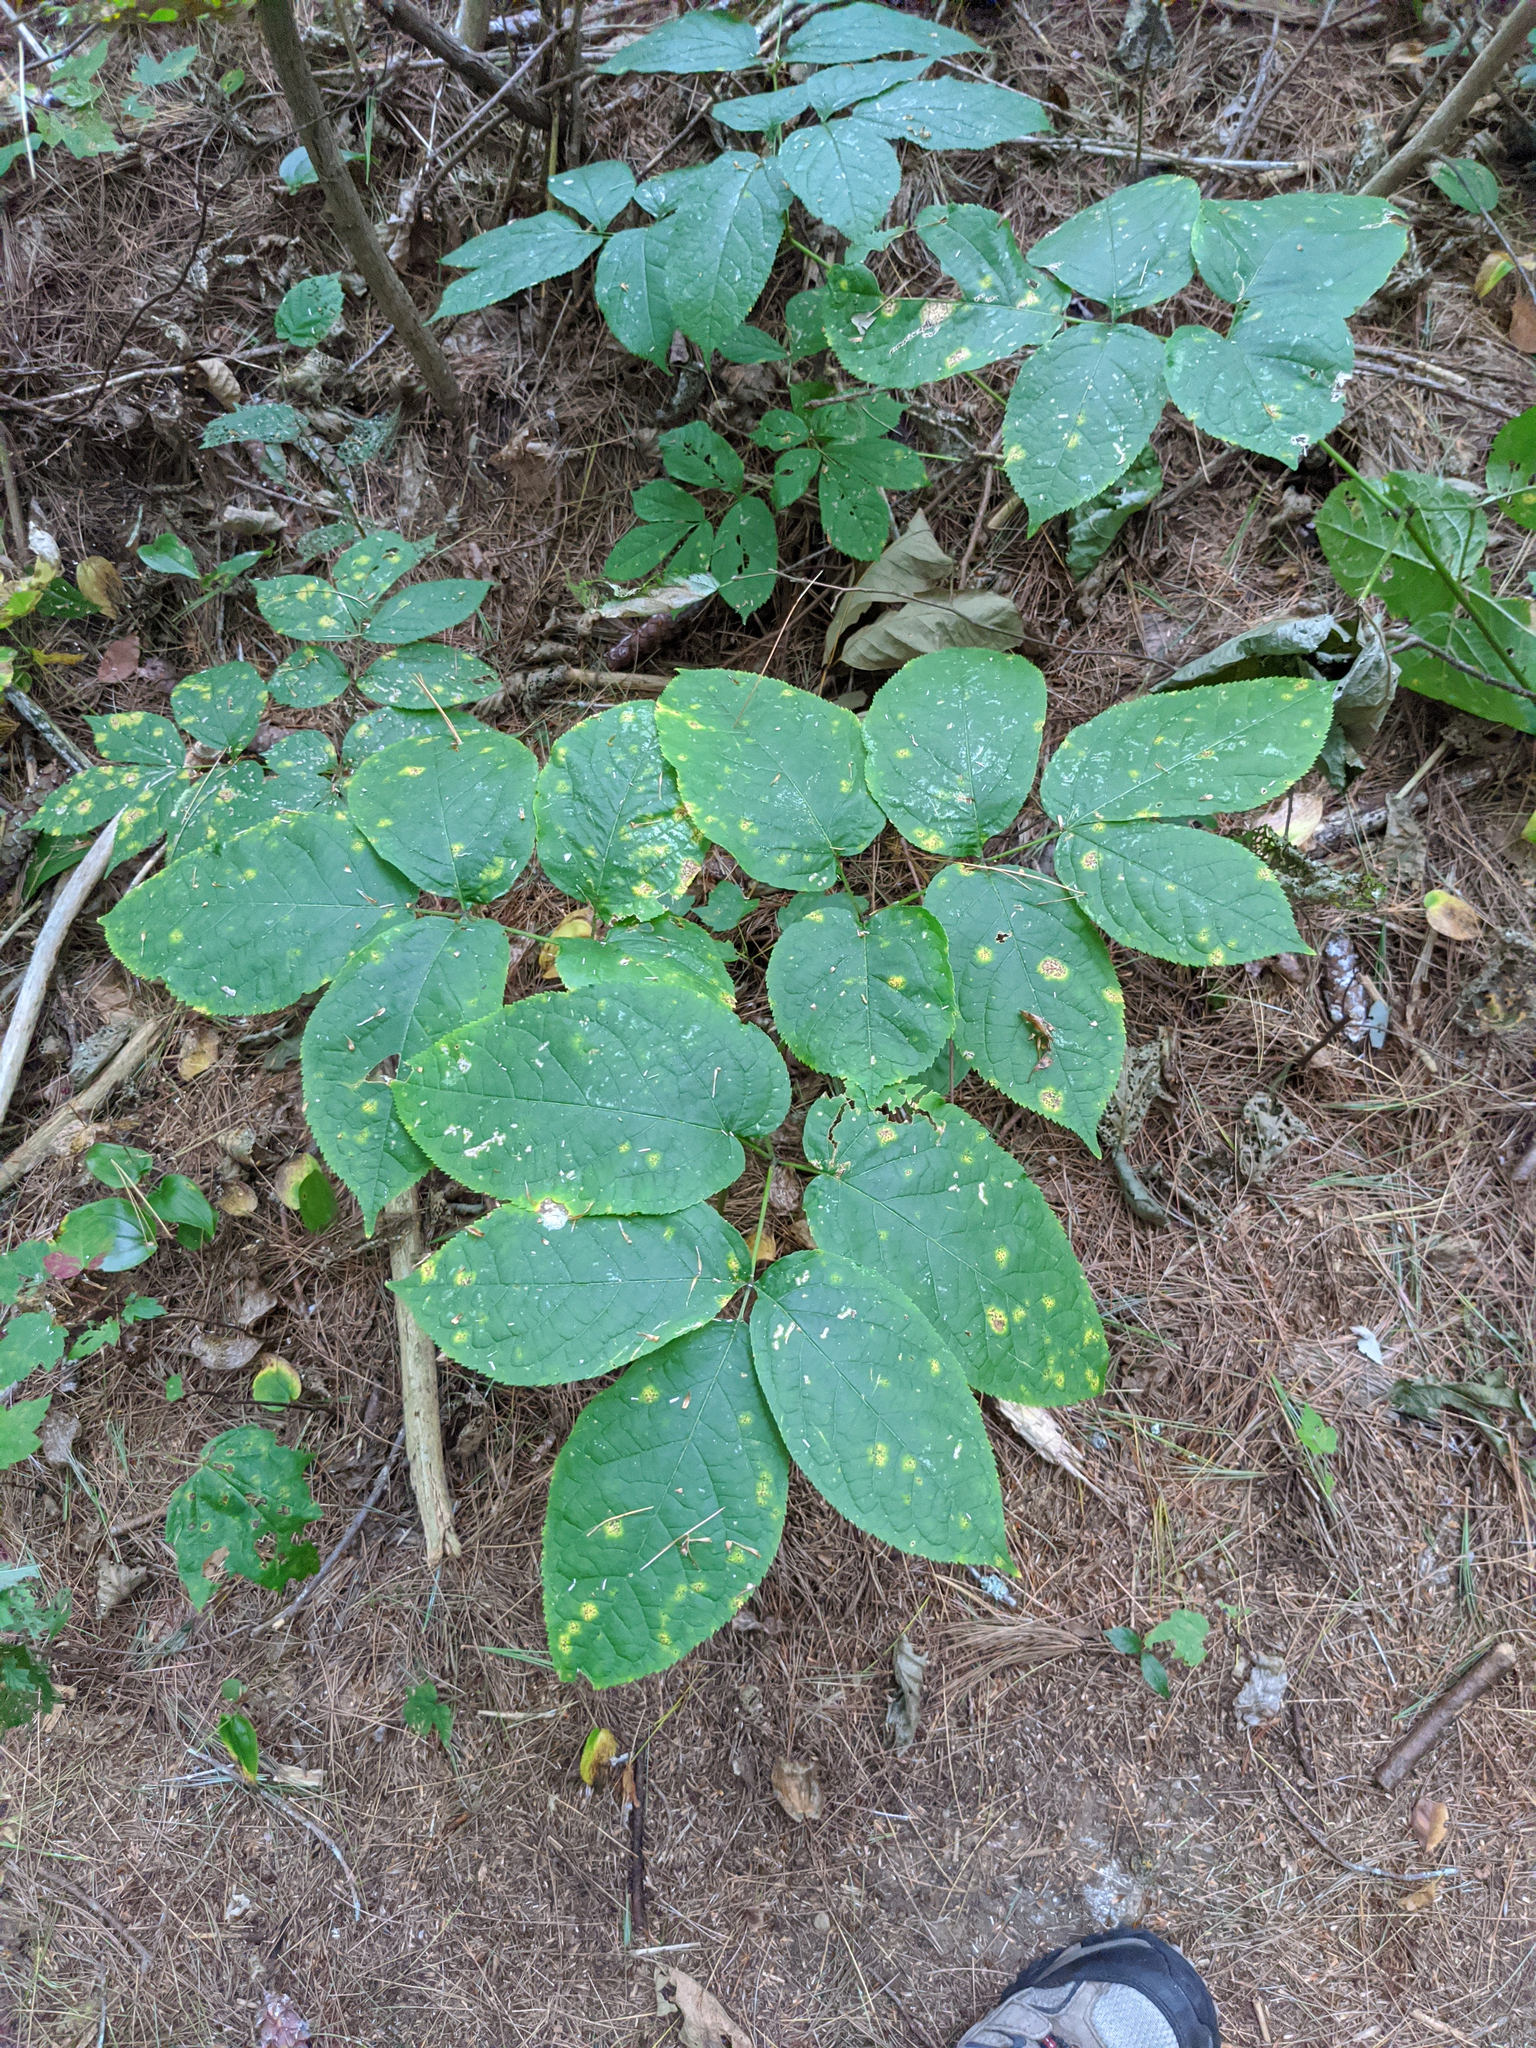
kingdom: Plantae
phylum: Tracheophyta
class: Magnoliopsida
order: Apiales
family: Araliaceae
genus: Aralia
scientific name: Aralia nudicaulis
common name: Wild sarsaparilla
